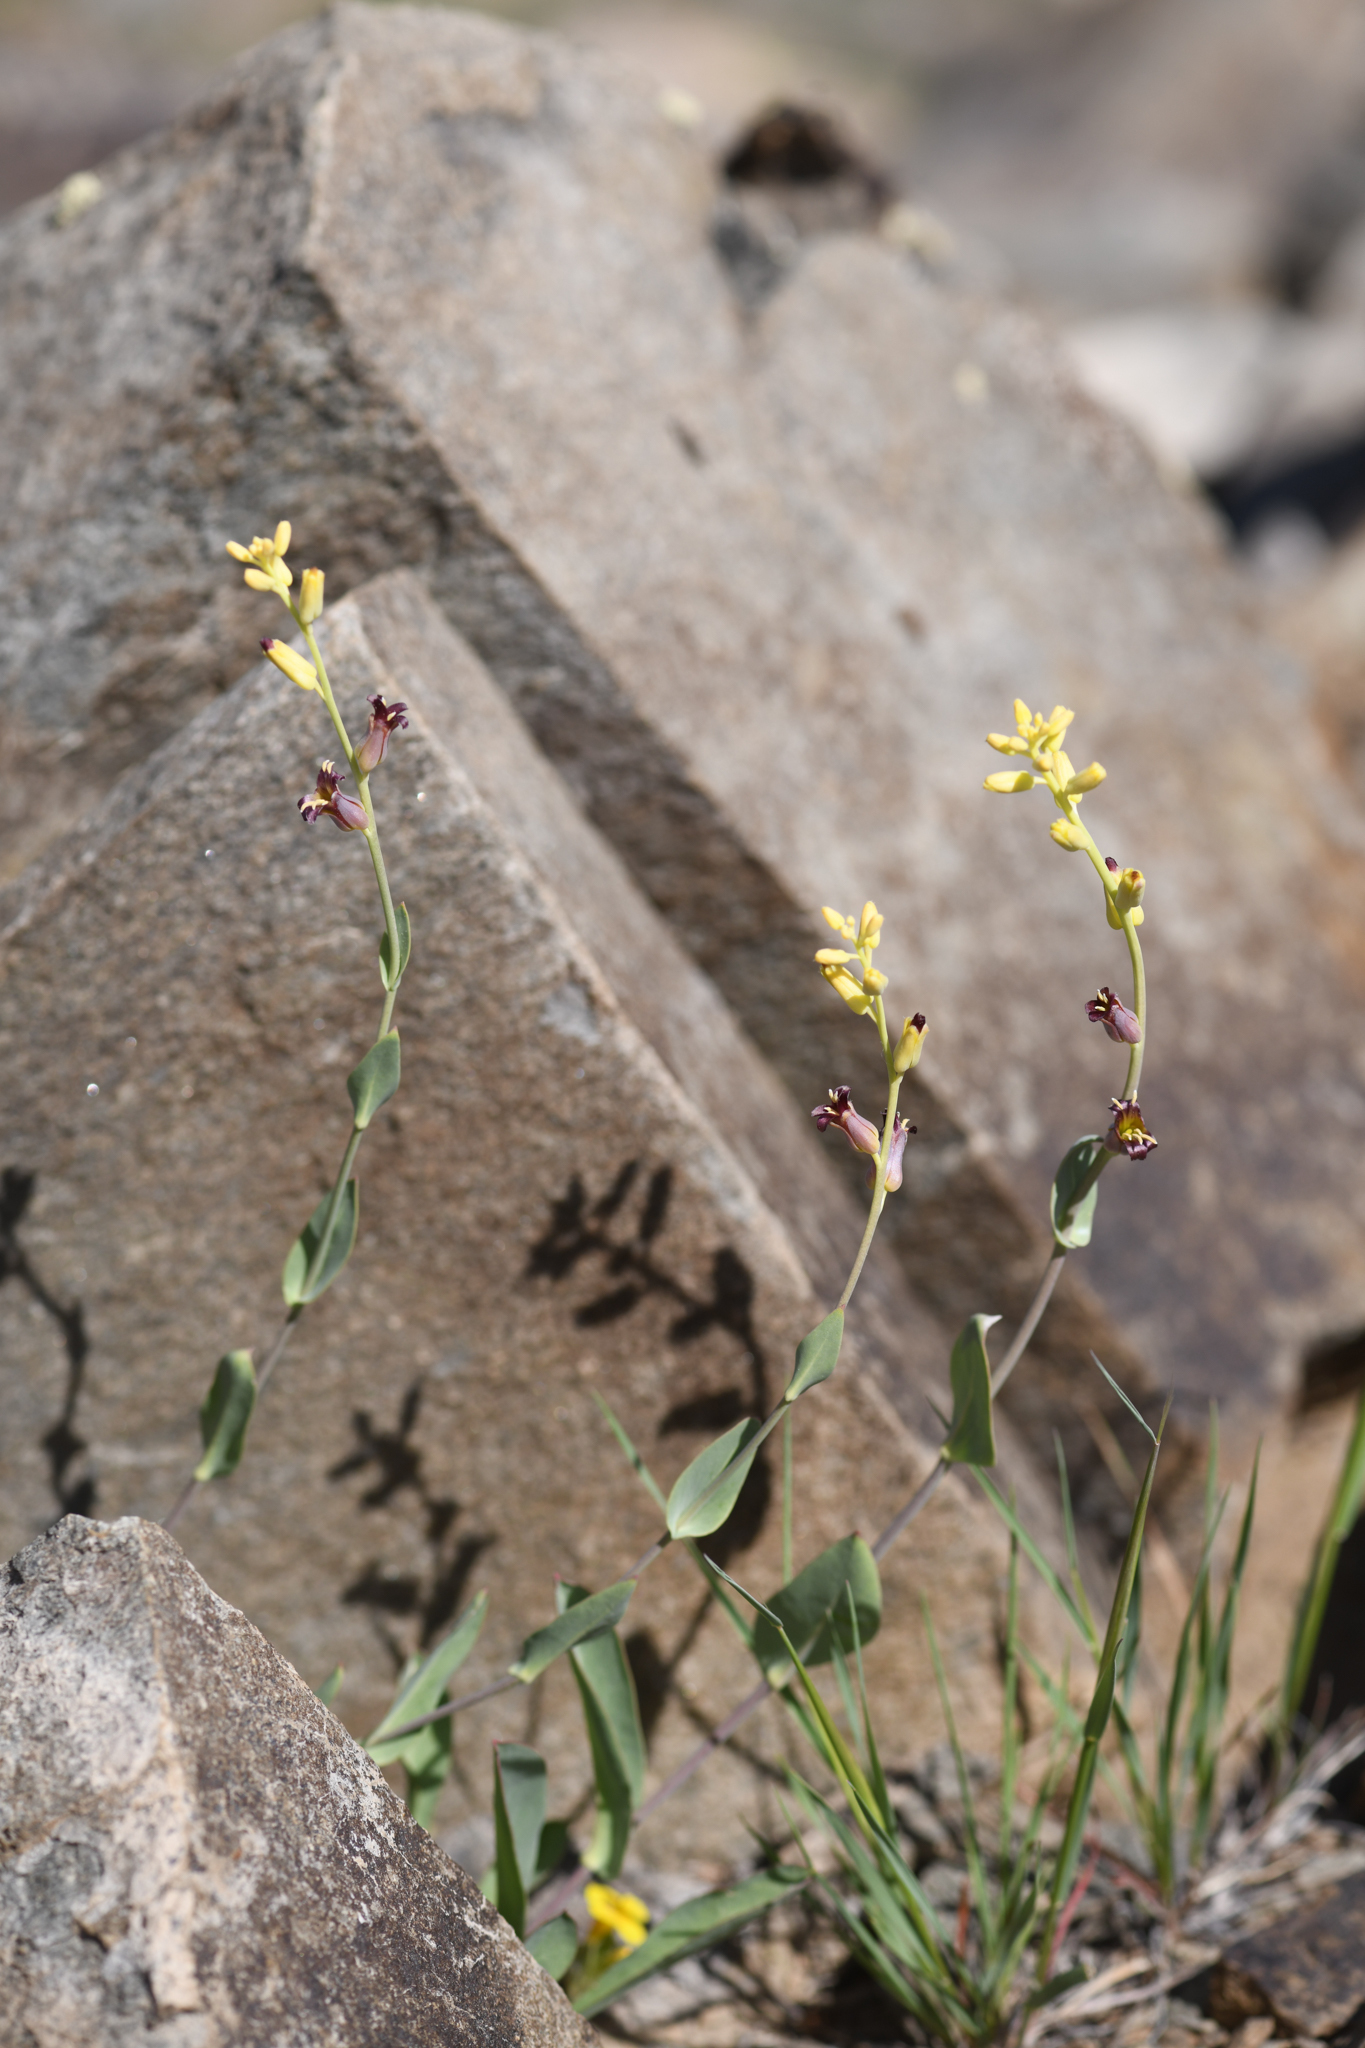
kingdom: Plantae
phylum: Tracheophyta
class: Magnoliopsida
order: Brassicales
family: Brassicaceae
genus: Streptanthus
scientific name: Streptanthus oliganthus
